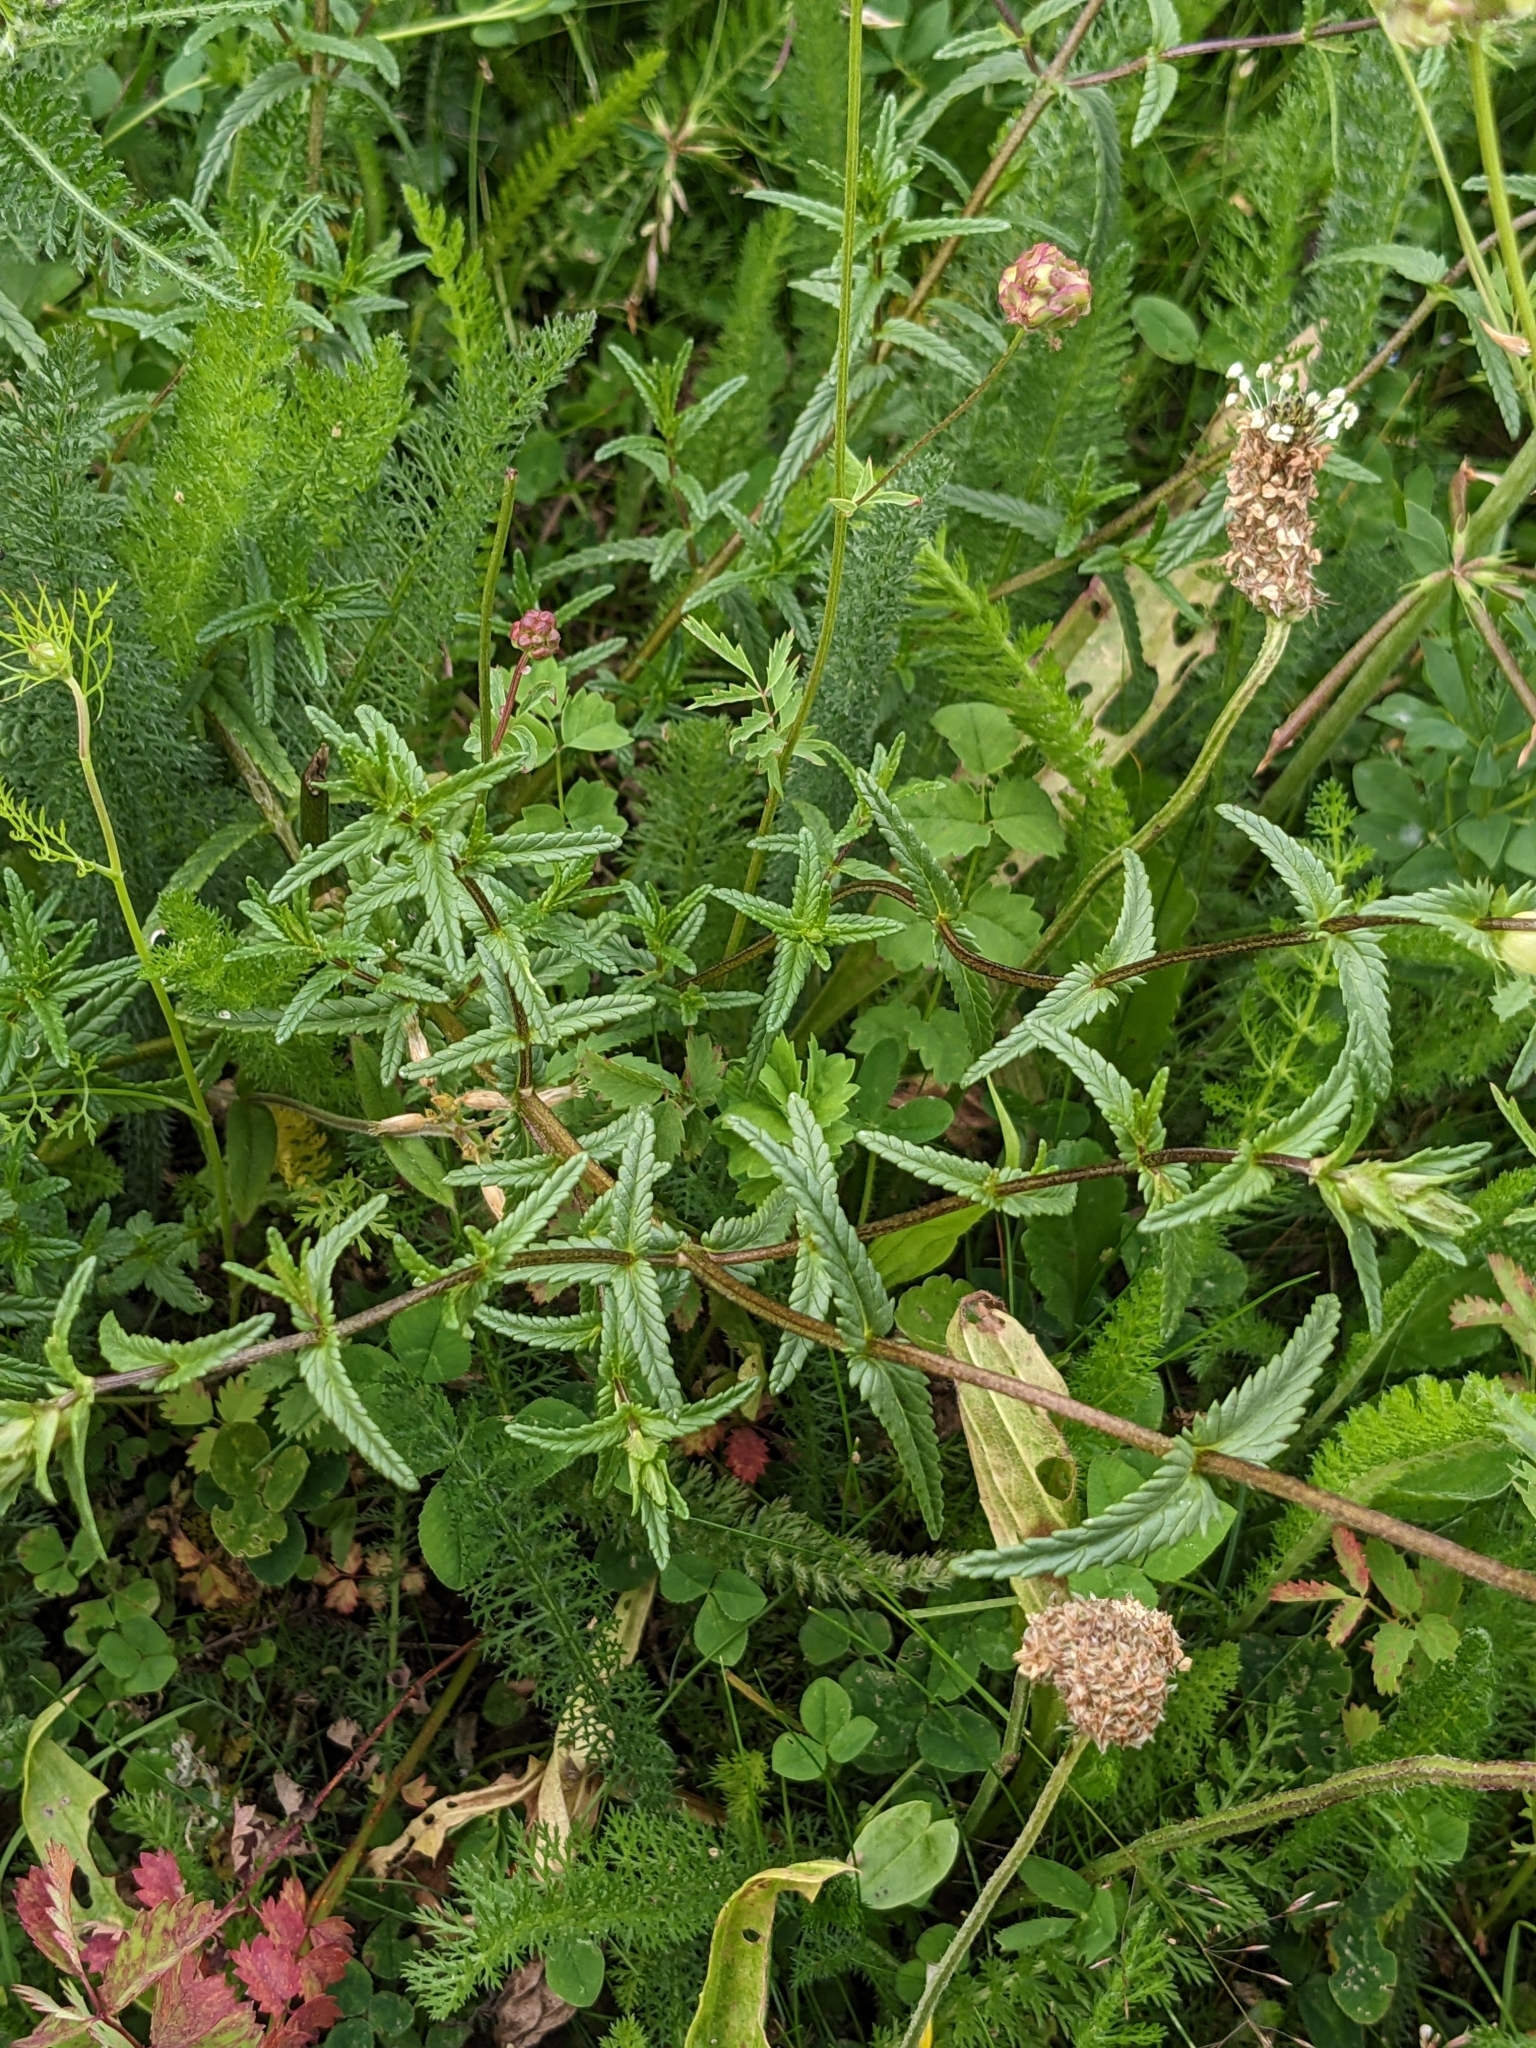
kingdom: Plantae
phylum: Tracheophyta
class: Magnoliopsida
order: Lamiales
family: Orobanchaceae
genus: Rhinanthus
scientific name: Rhinanthus minor
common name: Yellow-rattle
